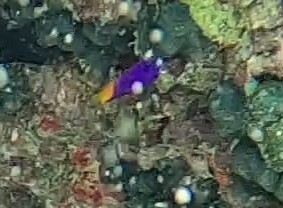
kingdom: Animalia
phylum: Chordata
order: Perciformes
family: Grammatidae
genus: Gramma
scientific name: Gramma loreto
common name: Fairy basslet
